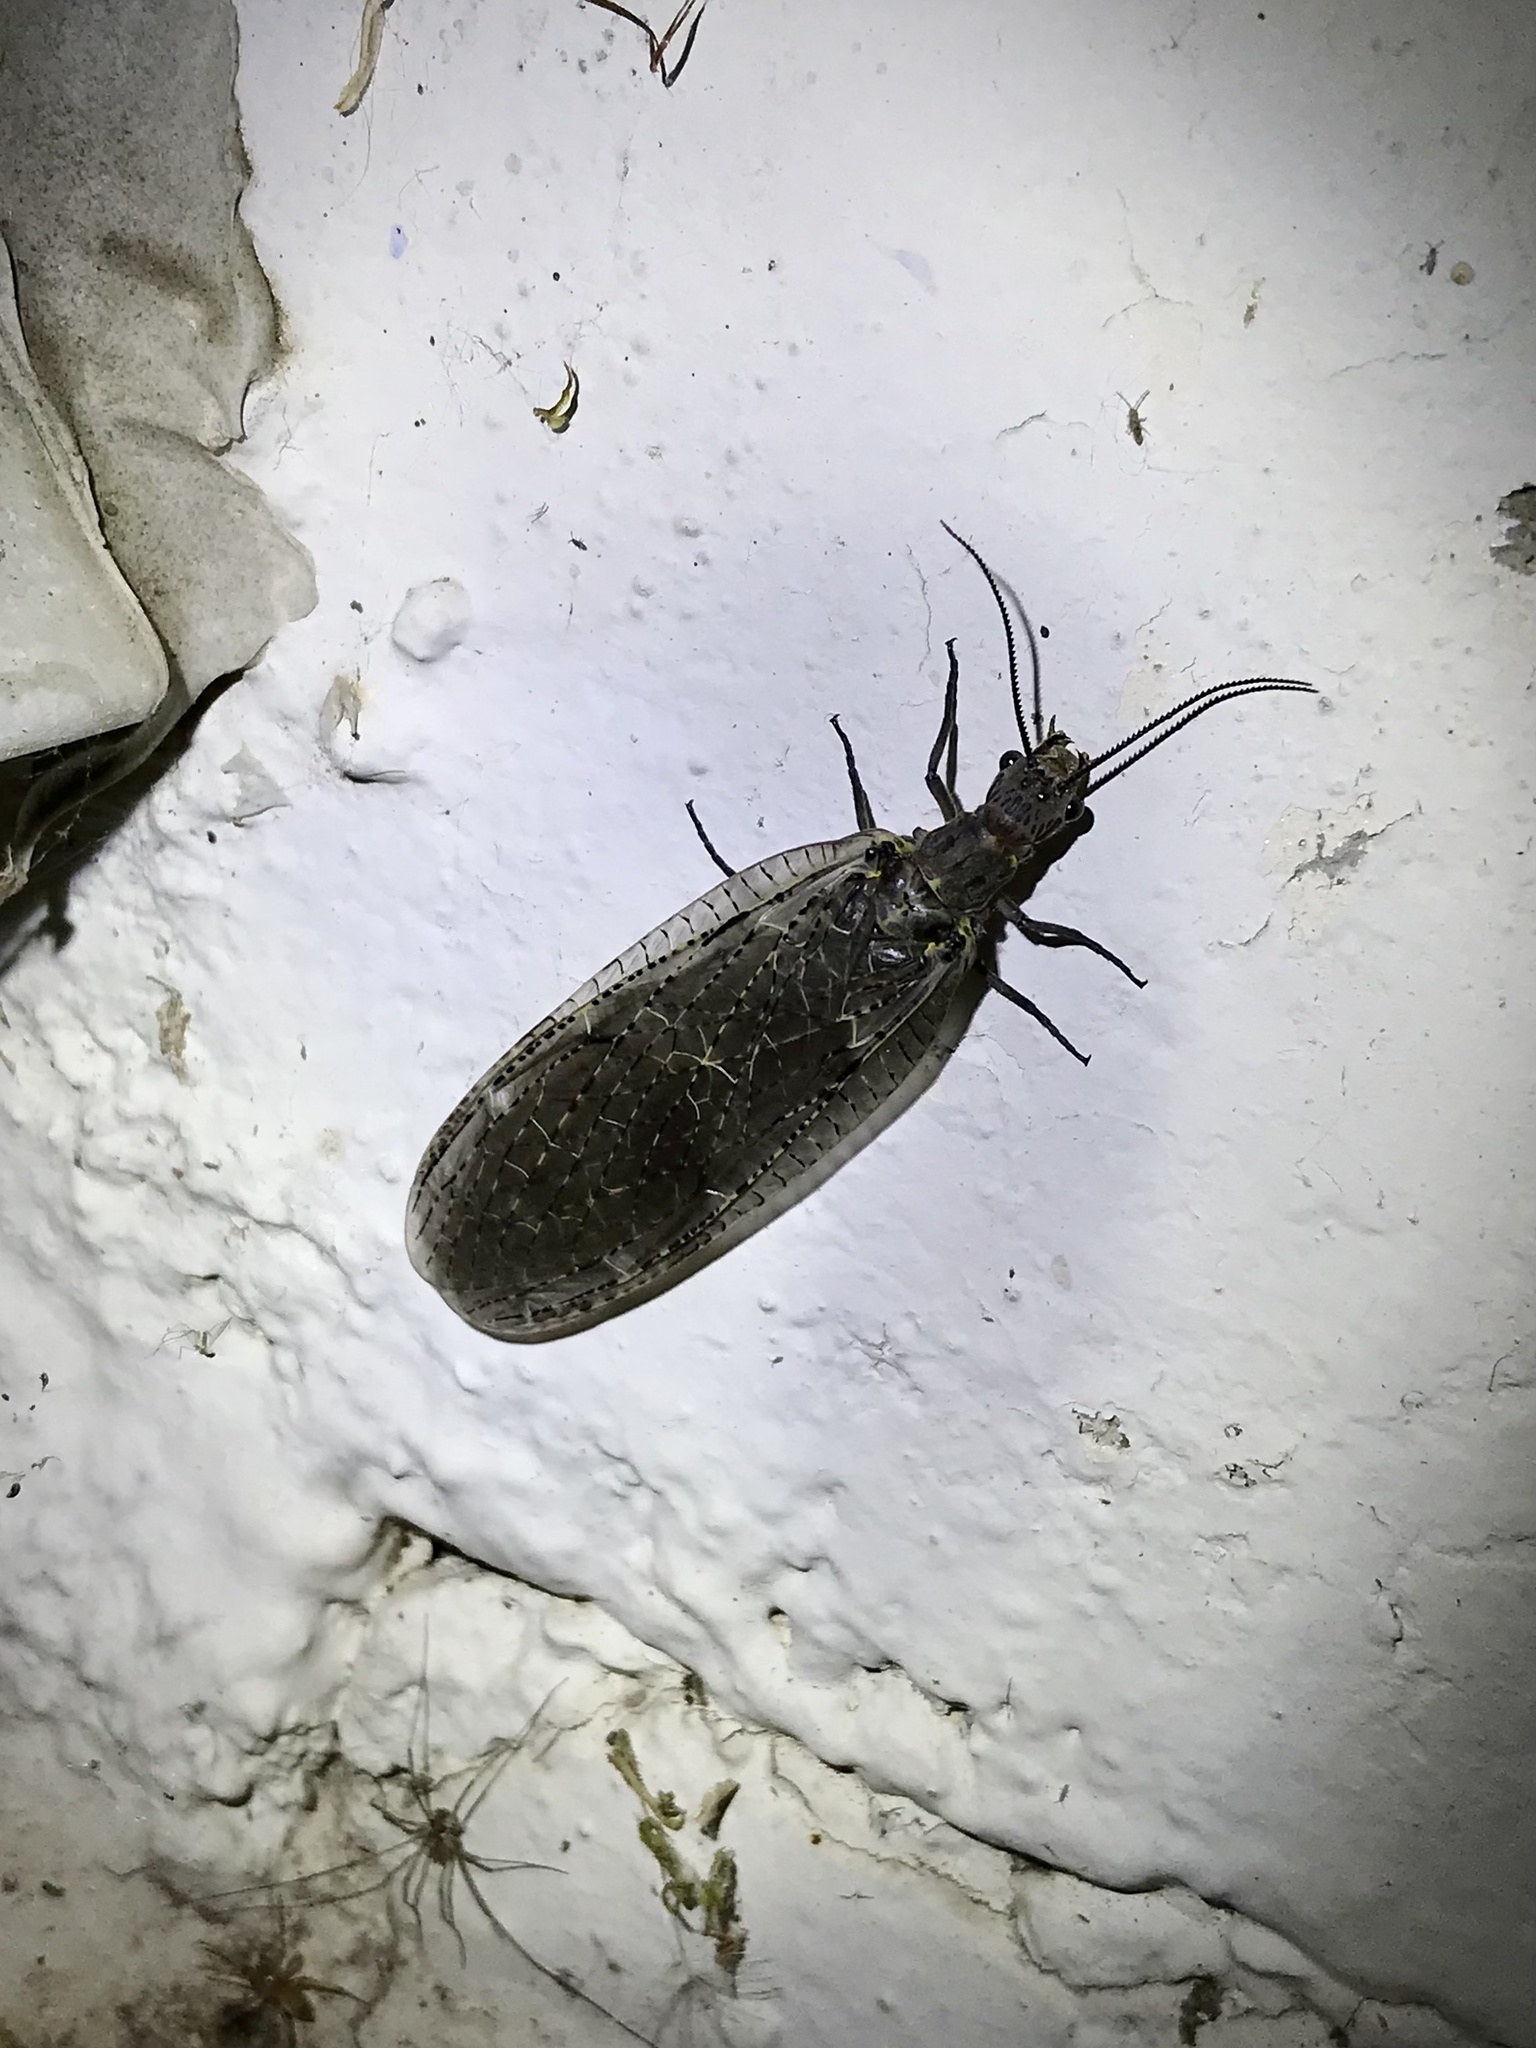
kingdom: Animalia
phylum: Arthropoda
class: Insecta
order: Megaloptera
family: Corydalidae
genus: Chauliodes
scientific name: Chauliodes rastricornis
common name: Spring fishfly
